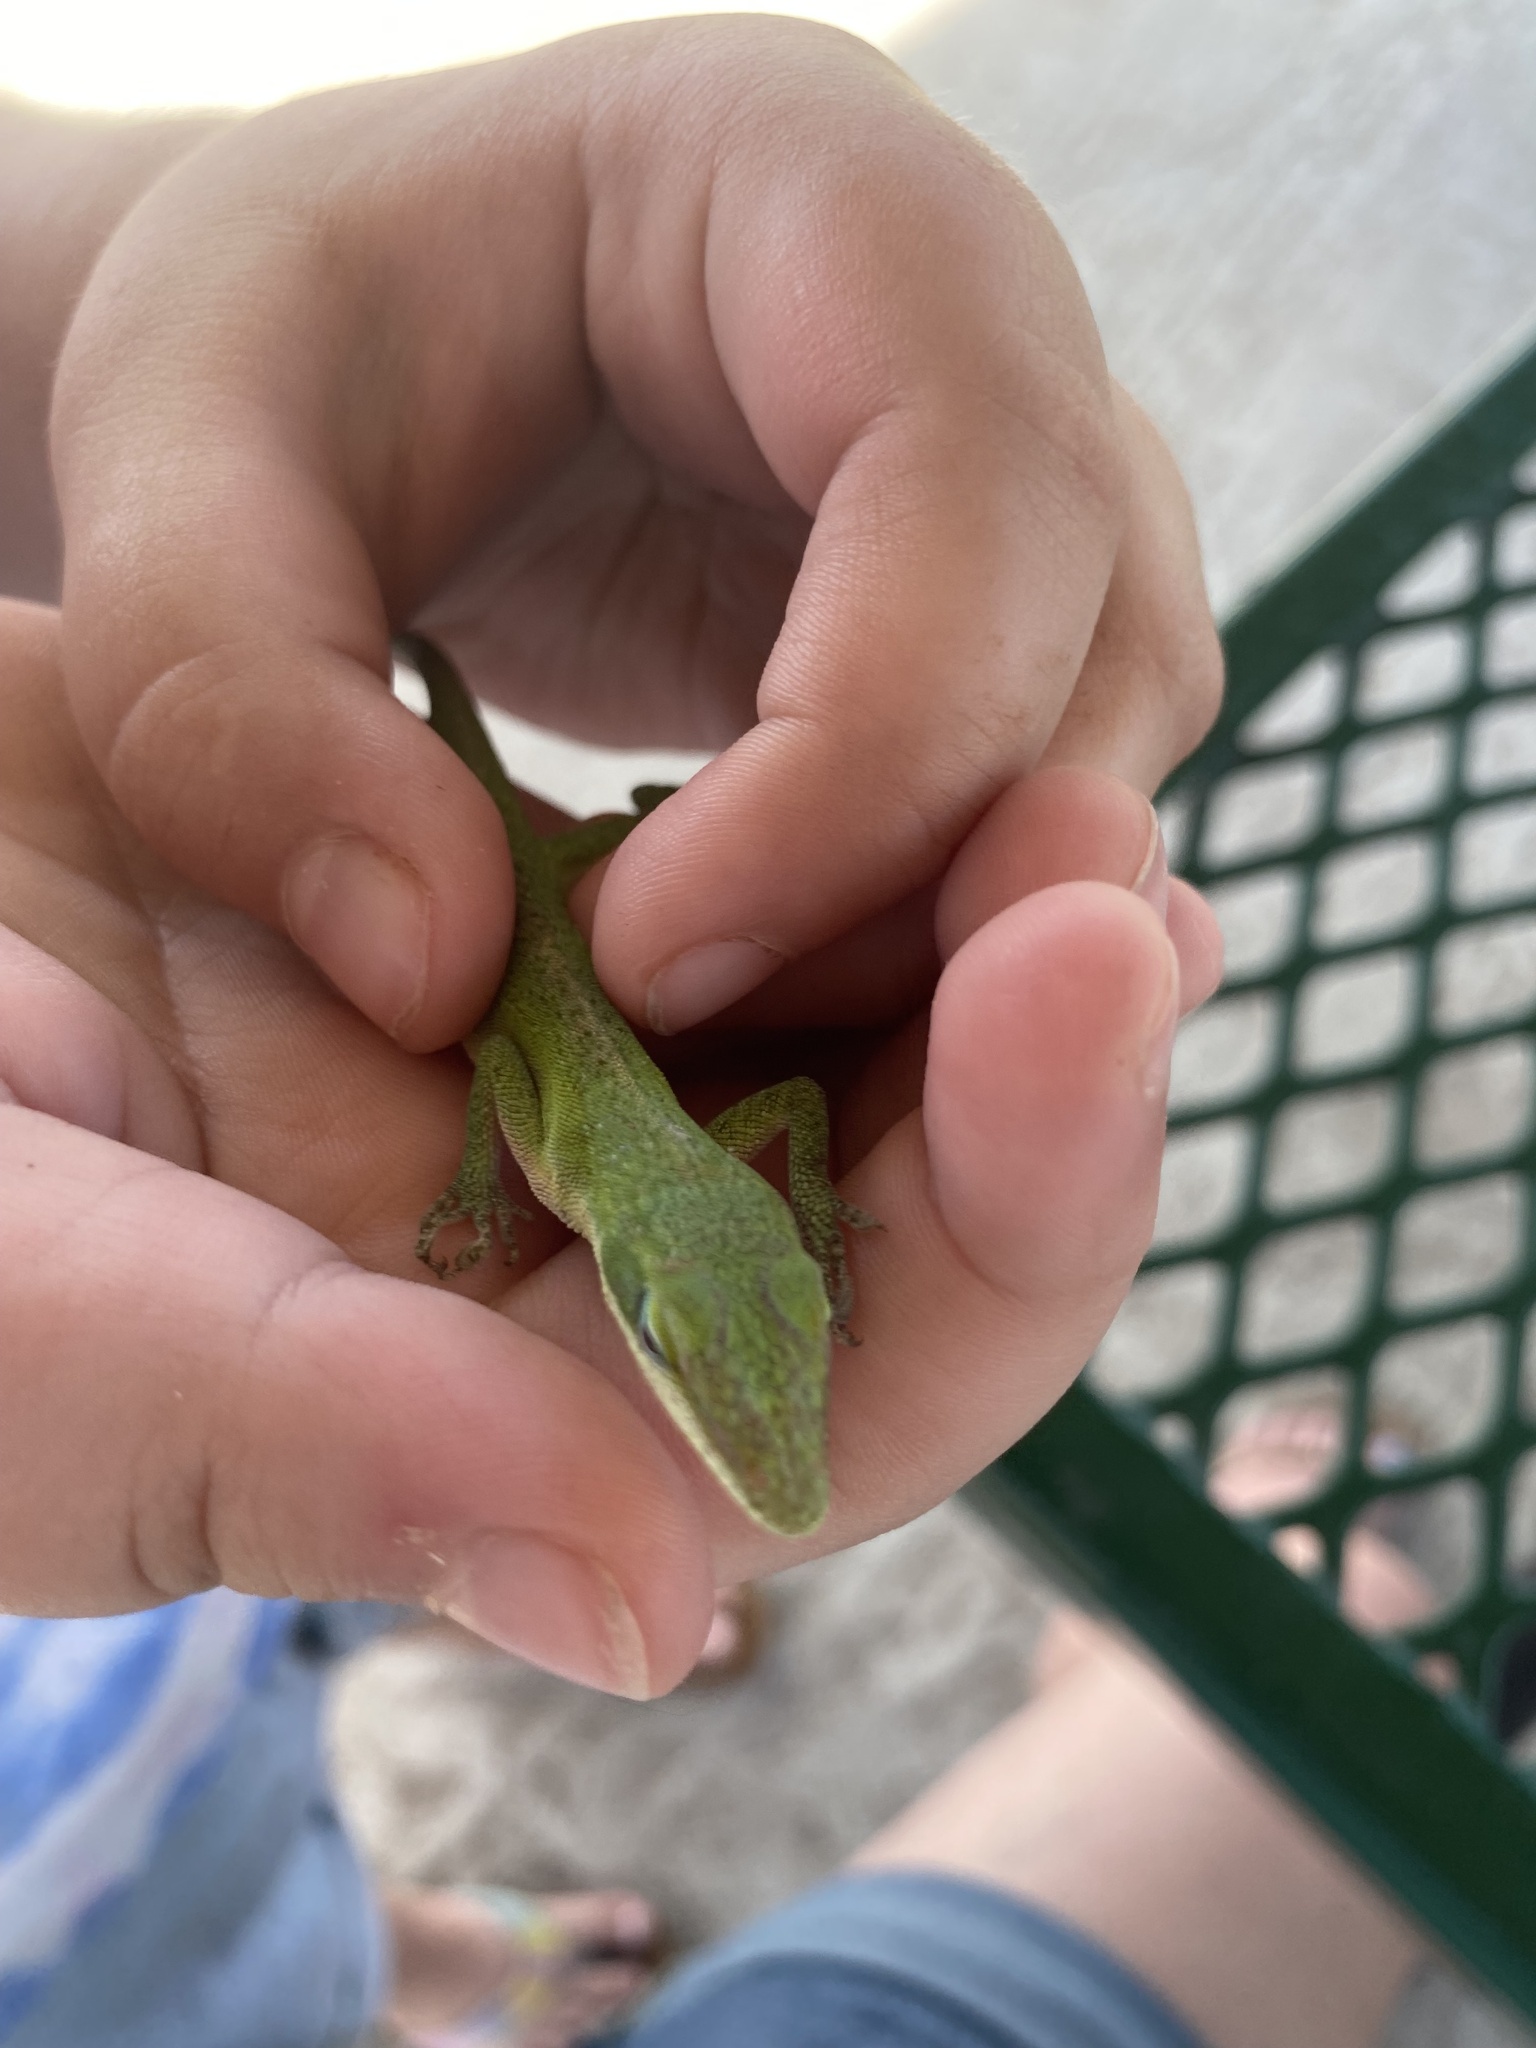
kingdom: Animalia
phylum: Chordata
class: Squamata
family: Dactyloidae
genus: Anolis
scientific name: Anolis carolinensis
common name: Green anole
